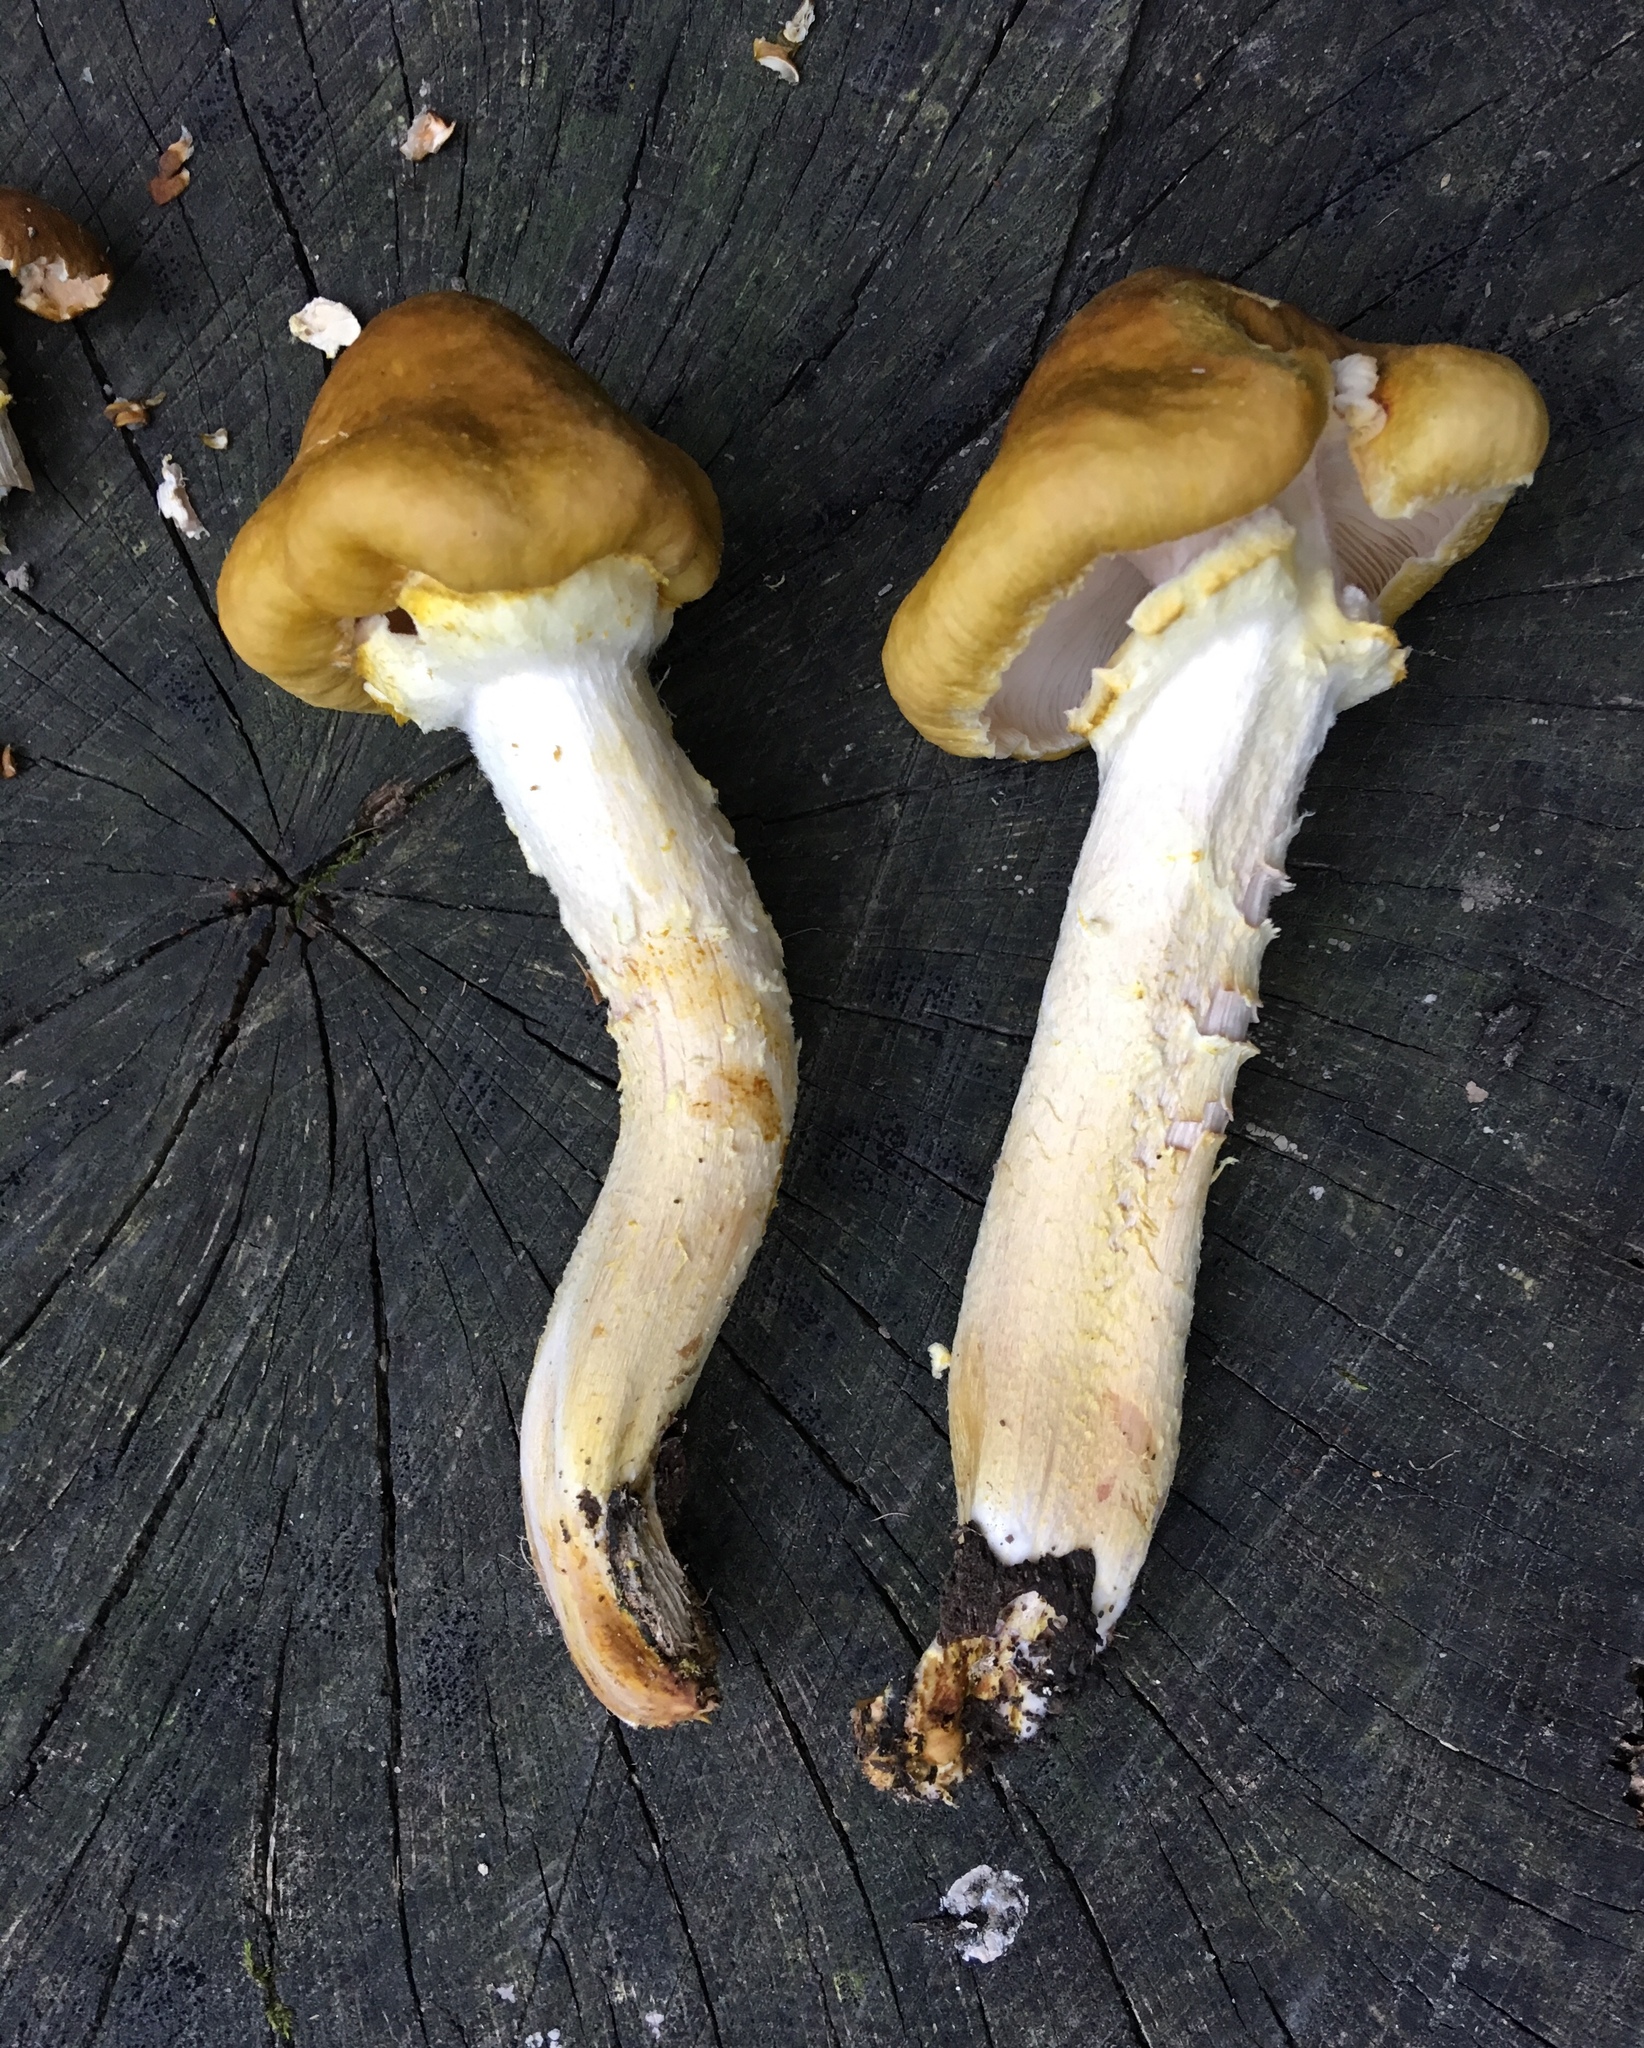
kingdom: Fungi
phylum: Basidiomycota
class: Agaricomycetes
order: Agaricales
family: Physalacriaceae
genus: Armillaria
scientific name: Armillaria mellea
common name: Honey fungus
